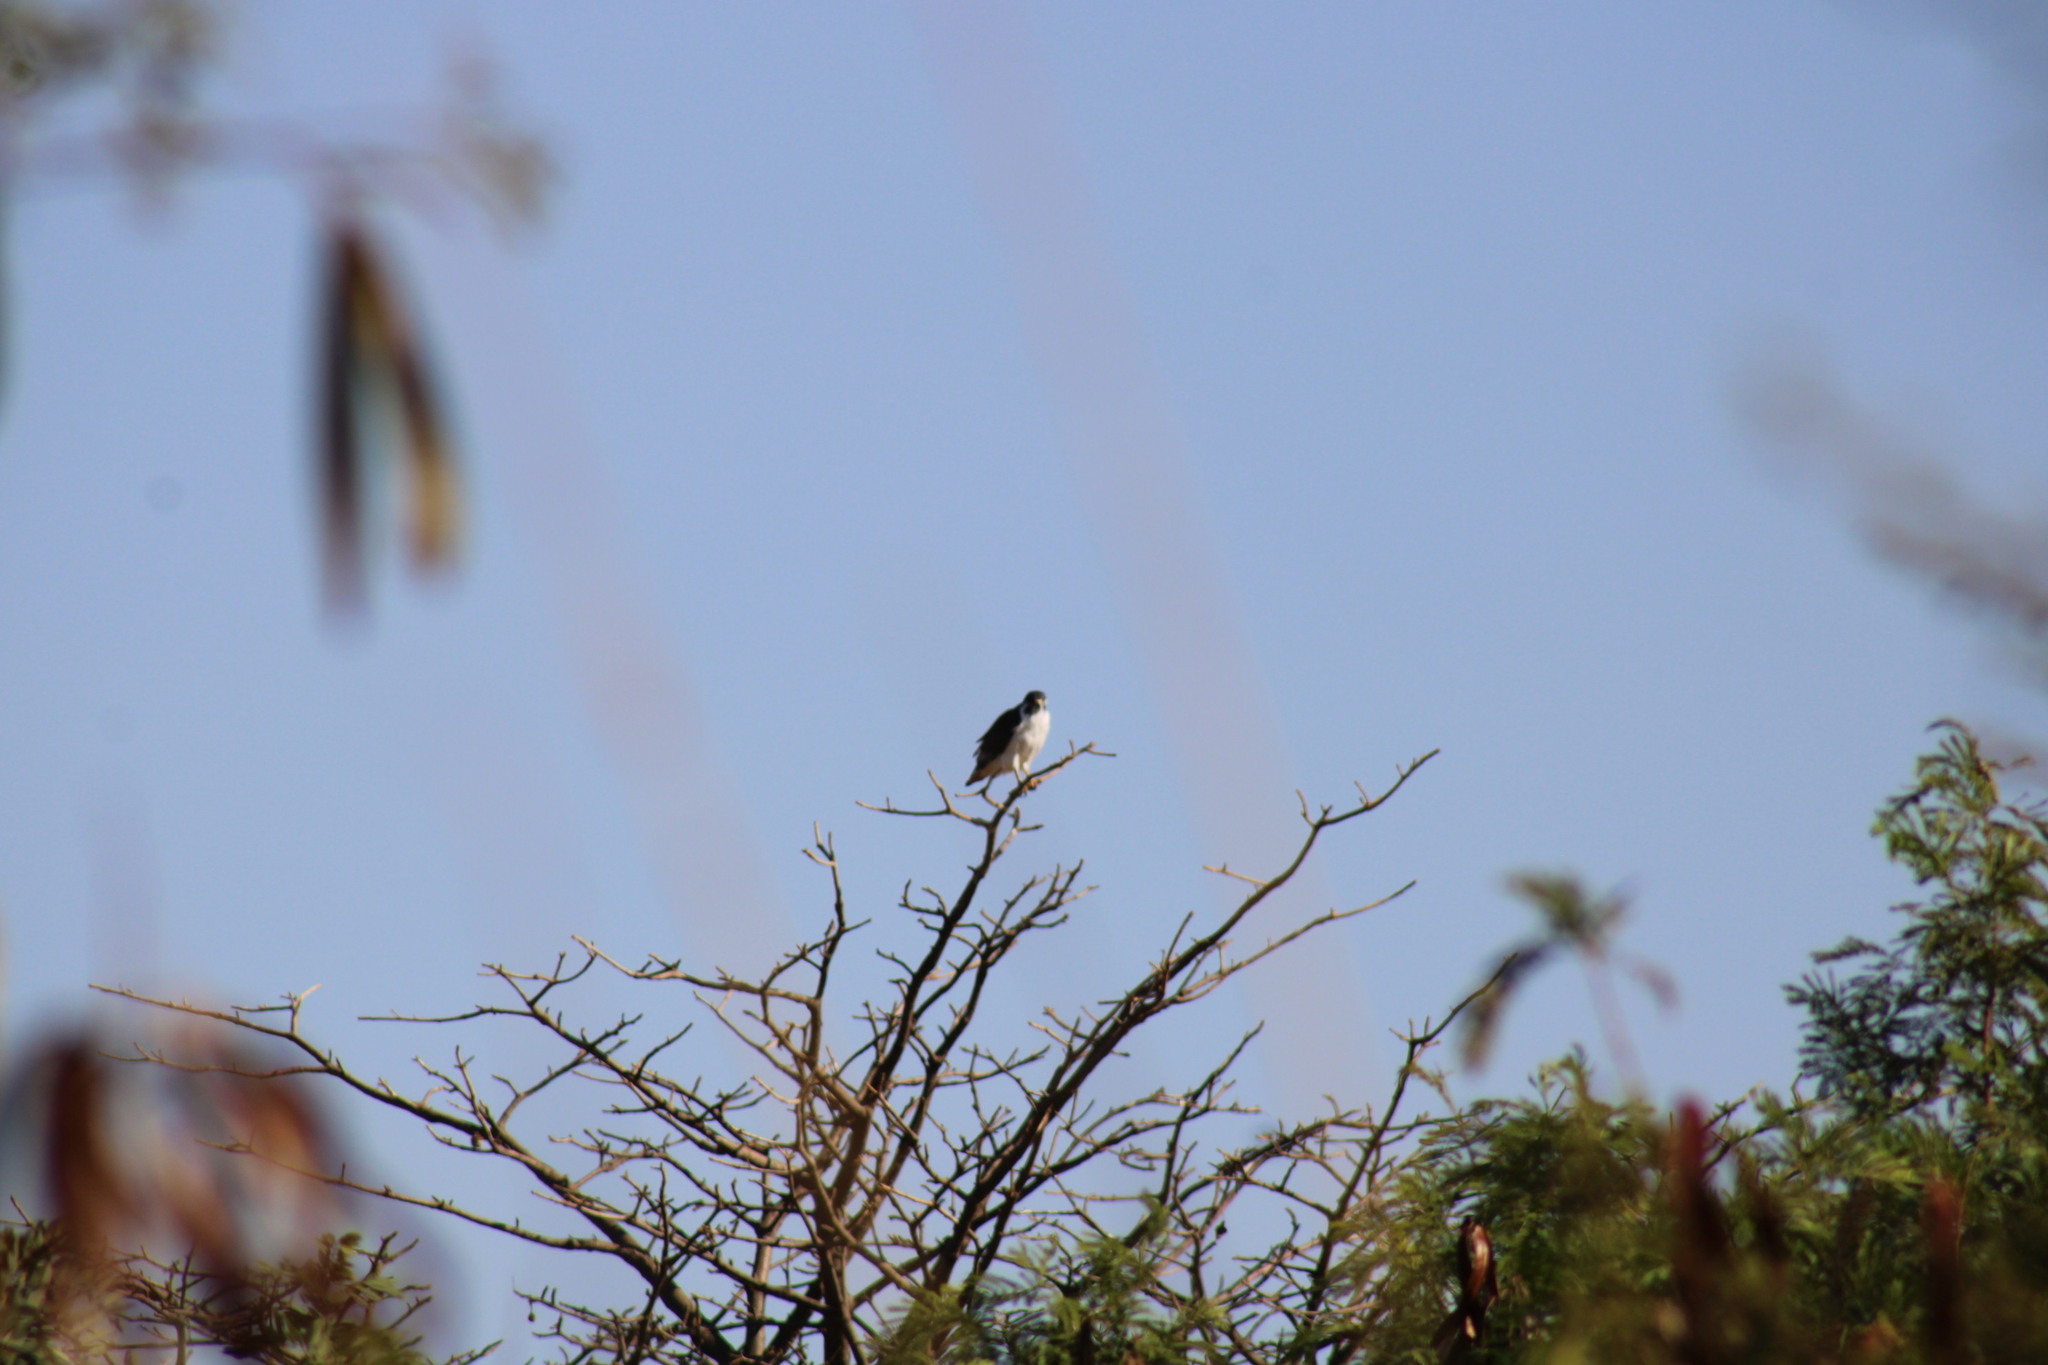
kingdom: Animalia
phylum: Chordata
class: Aves
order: Accipitriformes
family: Accipitridae
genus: Buteo
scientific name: Buteo augur
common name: Augur buzzard
